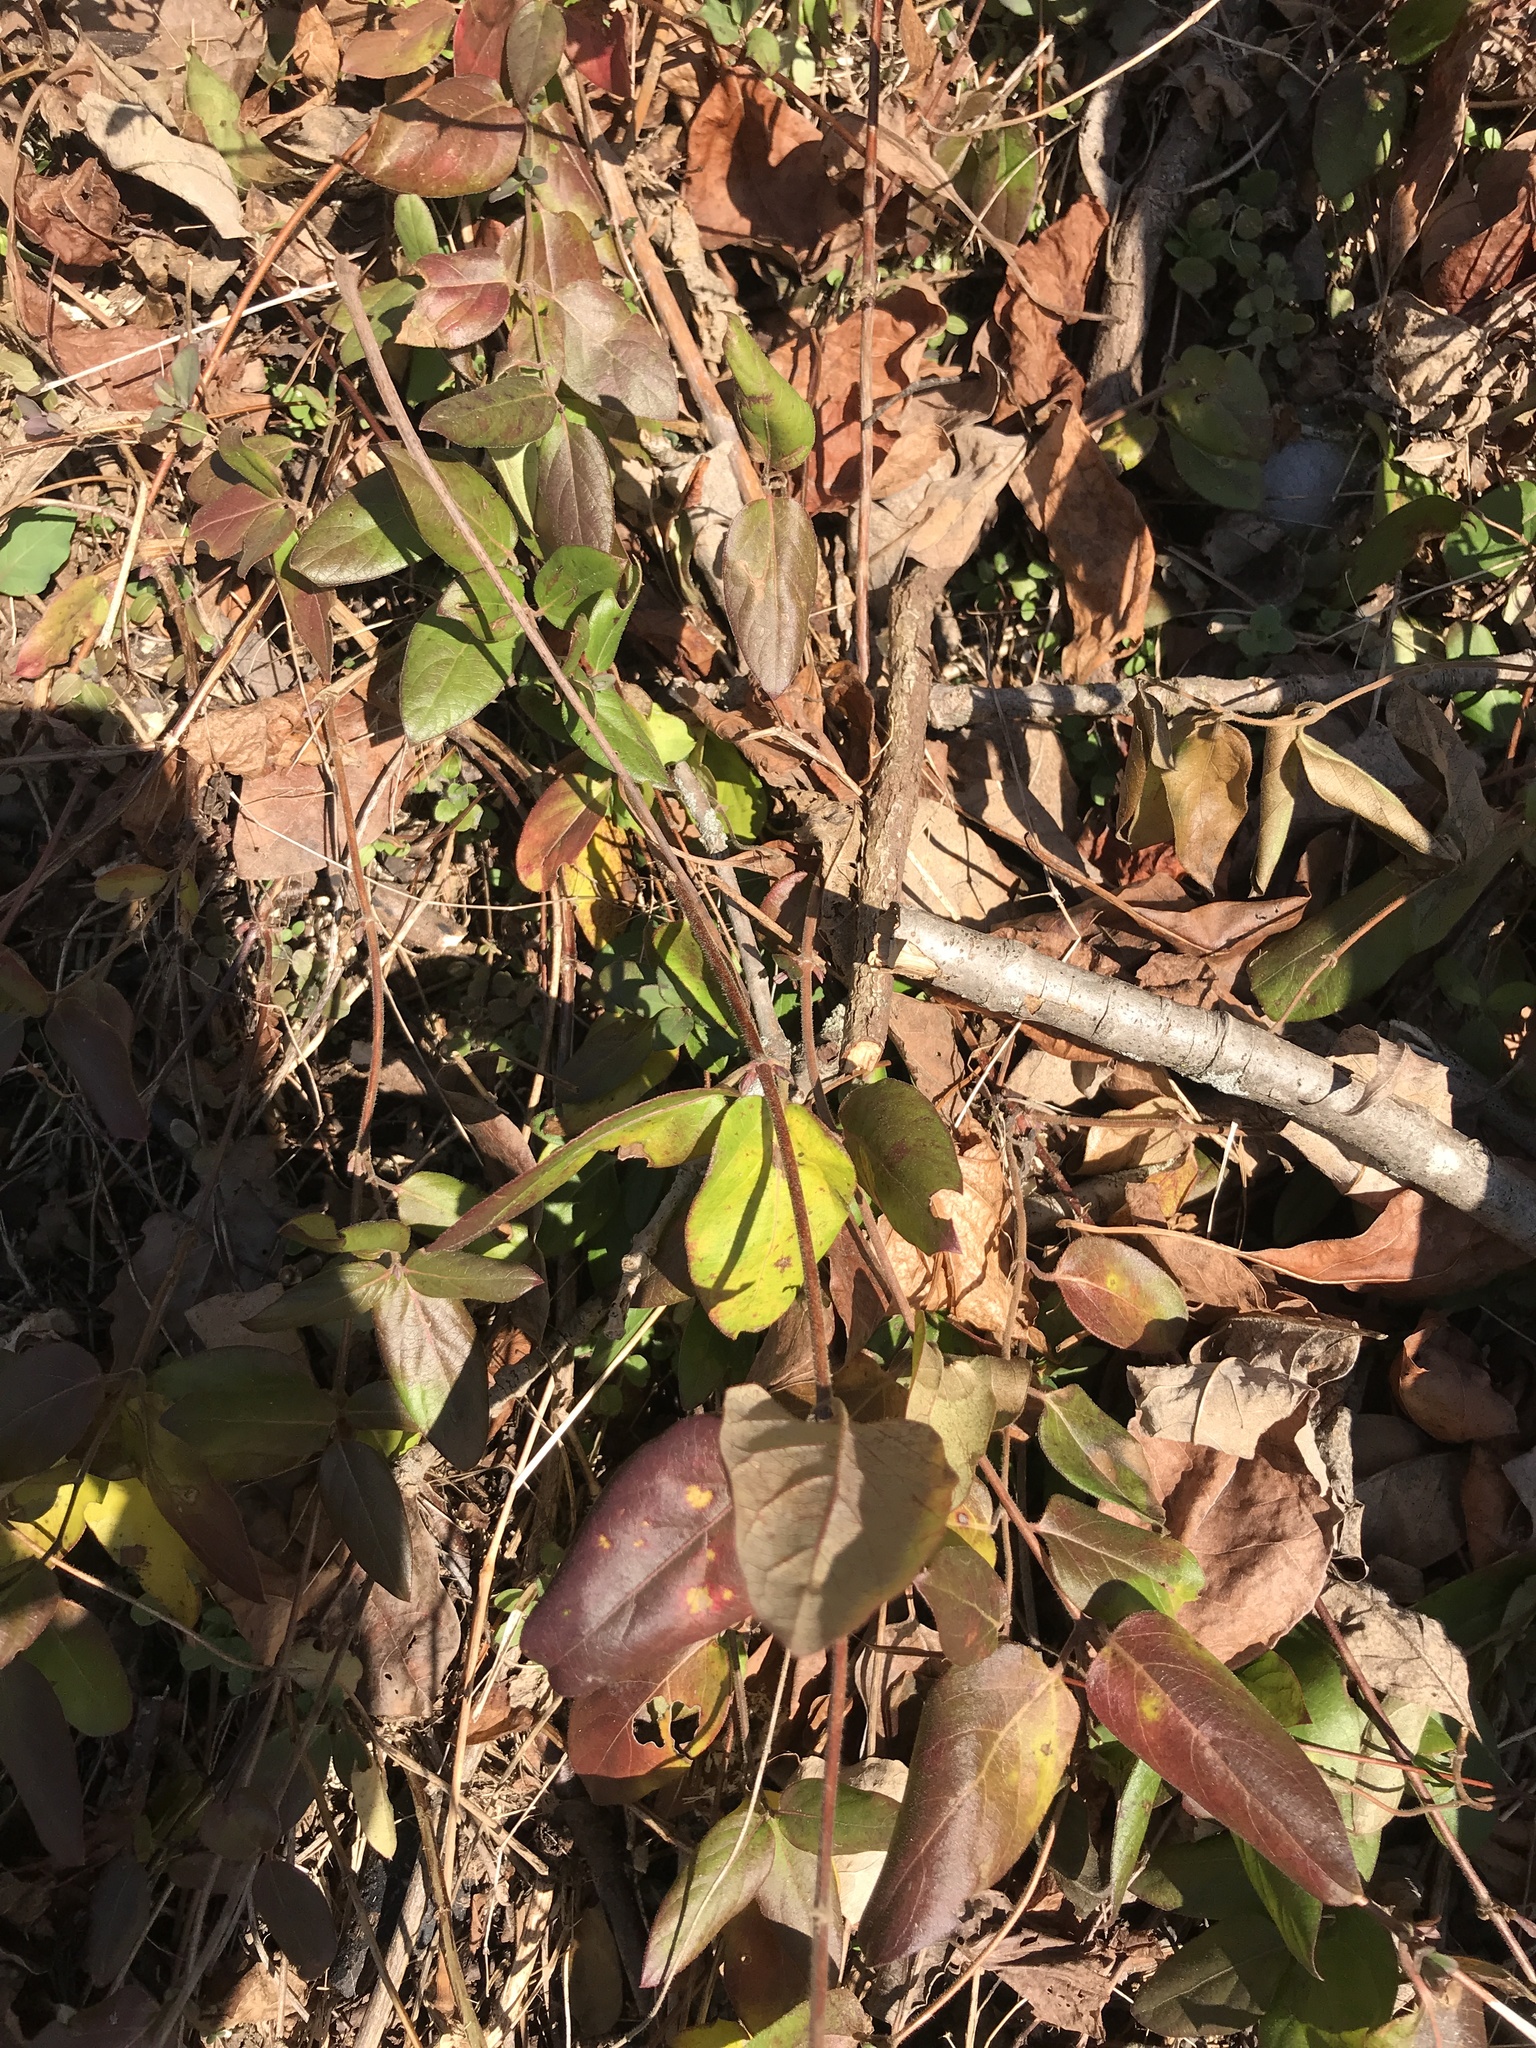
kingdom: Plantae
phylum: Tracheophyta
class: Magnoliopsida
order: Dipsacales
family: Caprifoliaceae
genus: Lonicera
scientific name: Lonicera japonica
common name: Japanese honeysuckle
